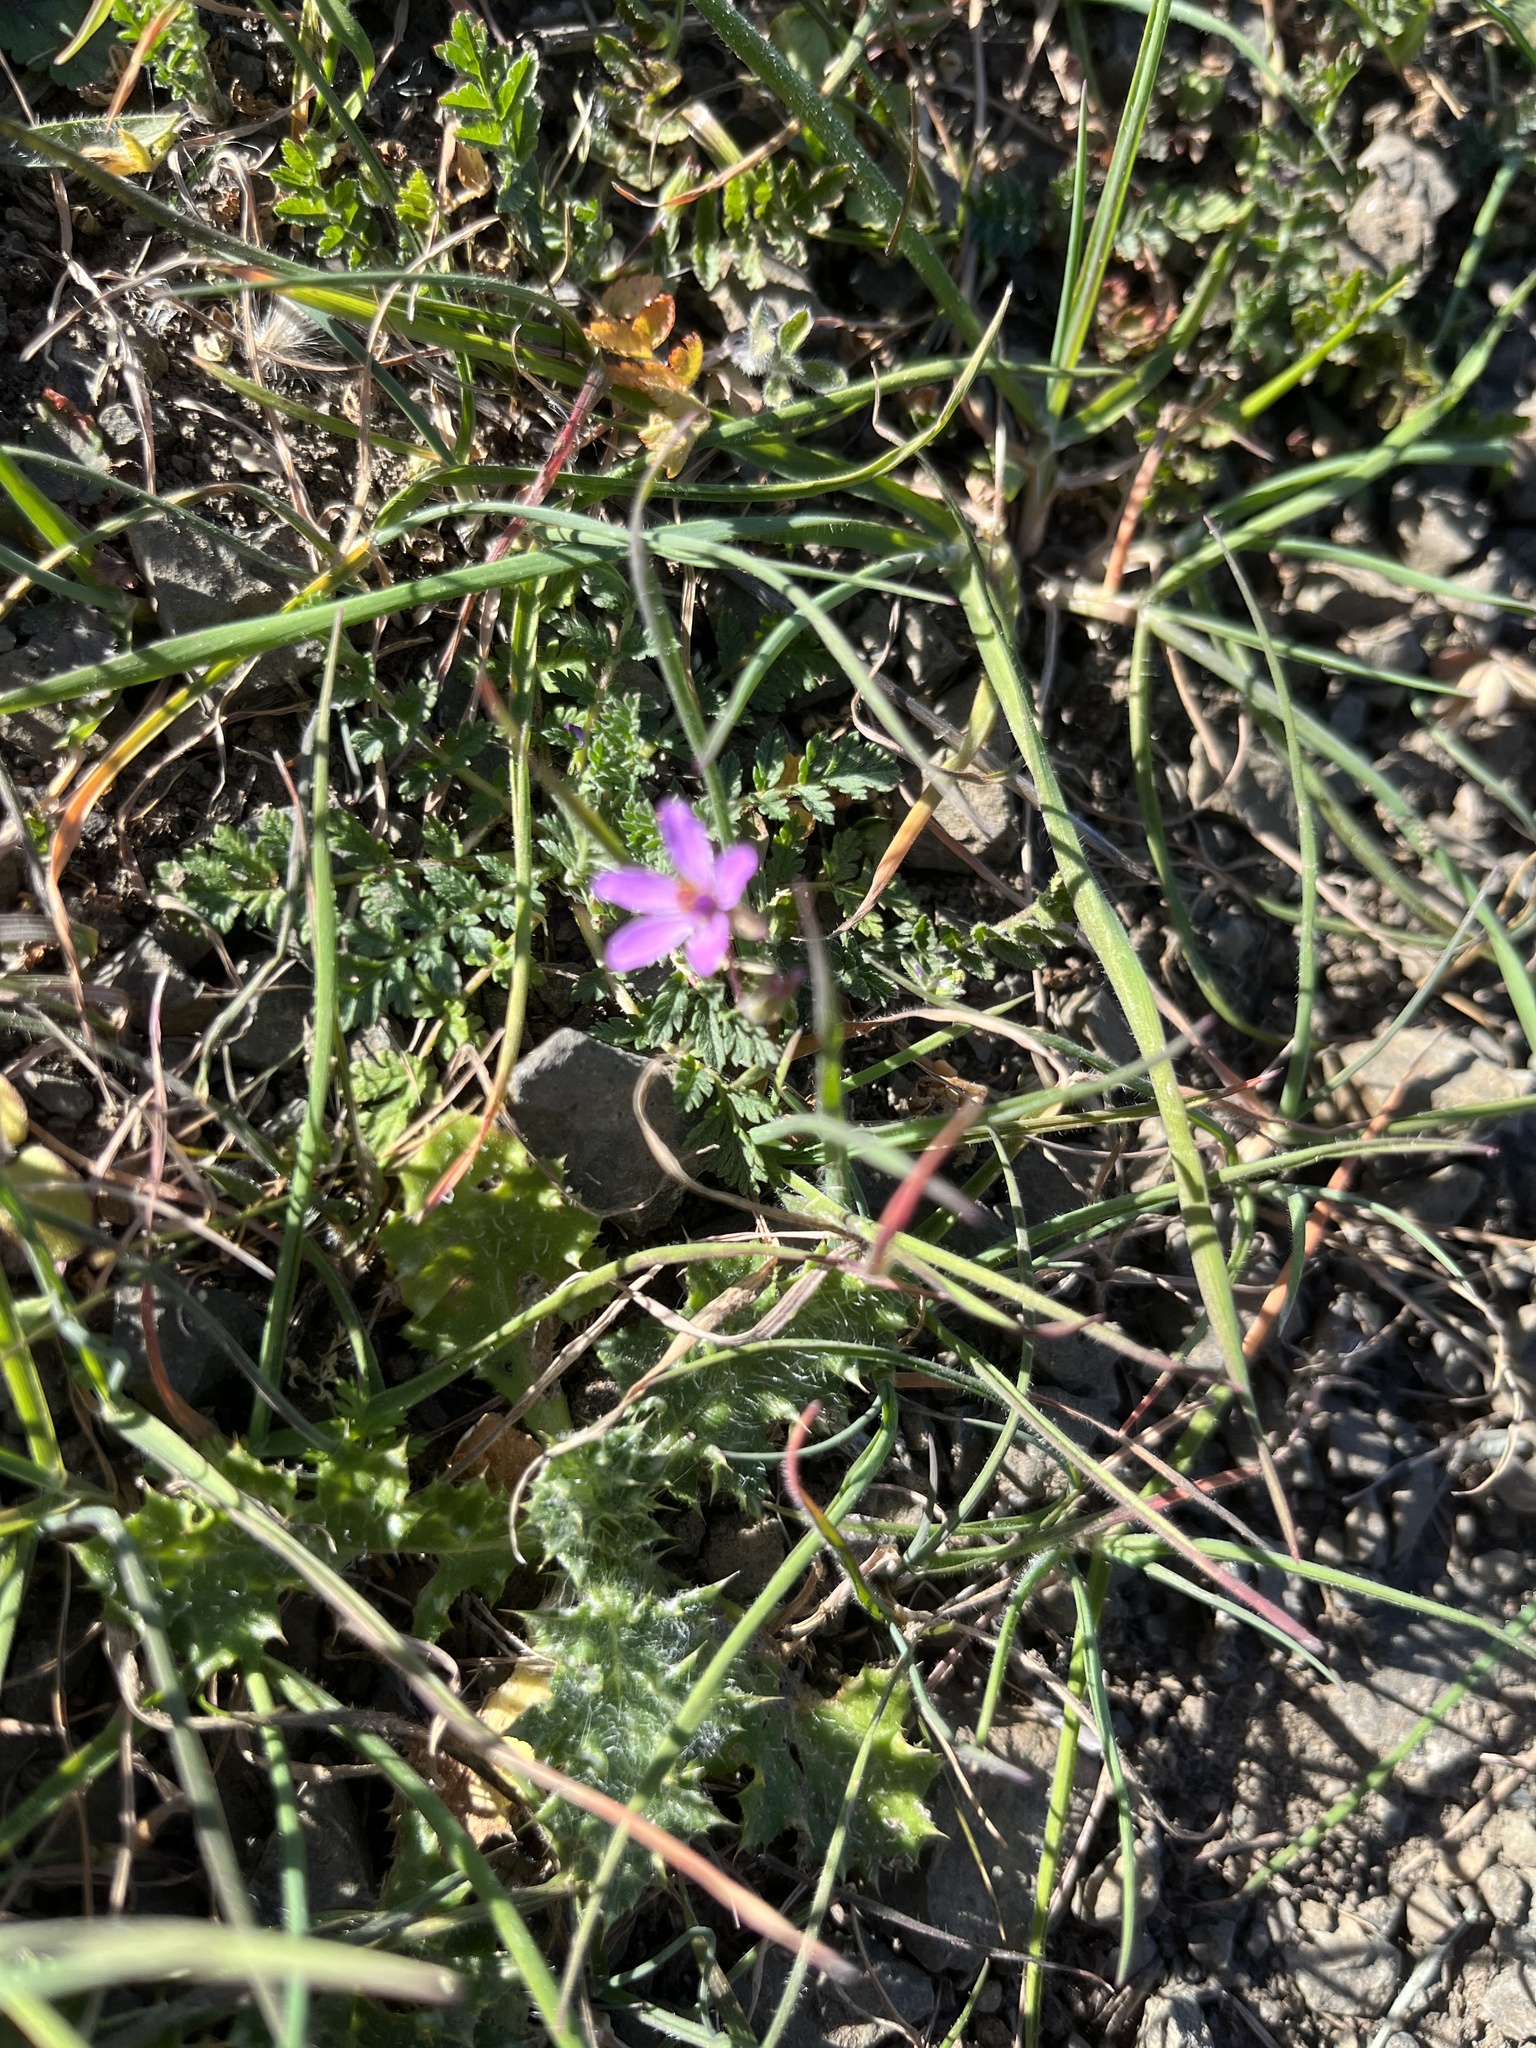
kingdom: Plantae
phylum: Tracheophyta
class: Magnoliopsida
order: Geraniales
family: Geraniaceae
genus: Erodium
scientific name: Erodium cicutarium
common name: Common stork's-bill
